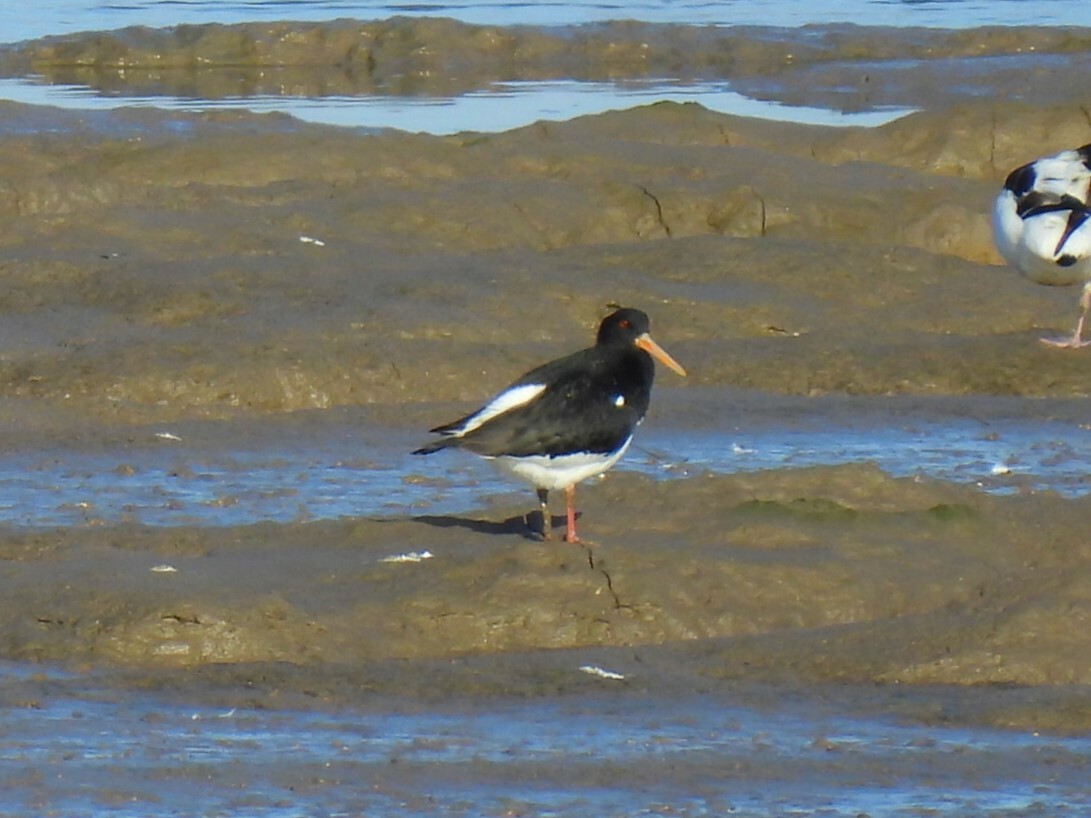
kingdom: Animalia
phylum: Chordata
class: Aves
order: Charadriiformes
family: Haematopodidae
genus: Haematopus
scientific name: Haematopus ostralegus
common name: Eurasian oystercatcher
